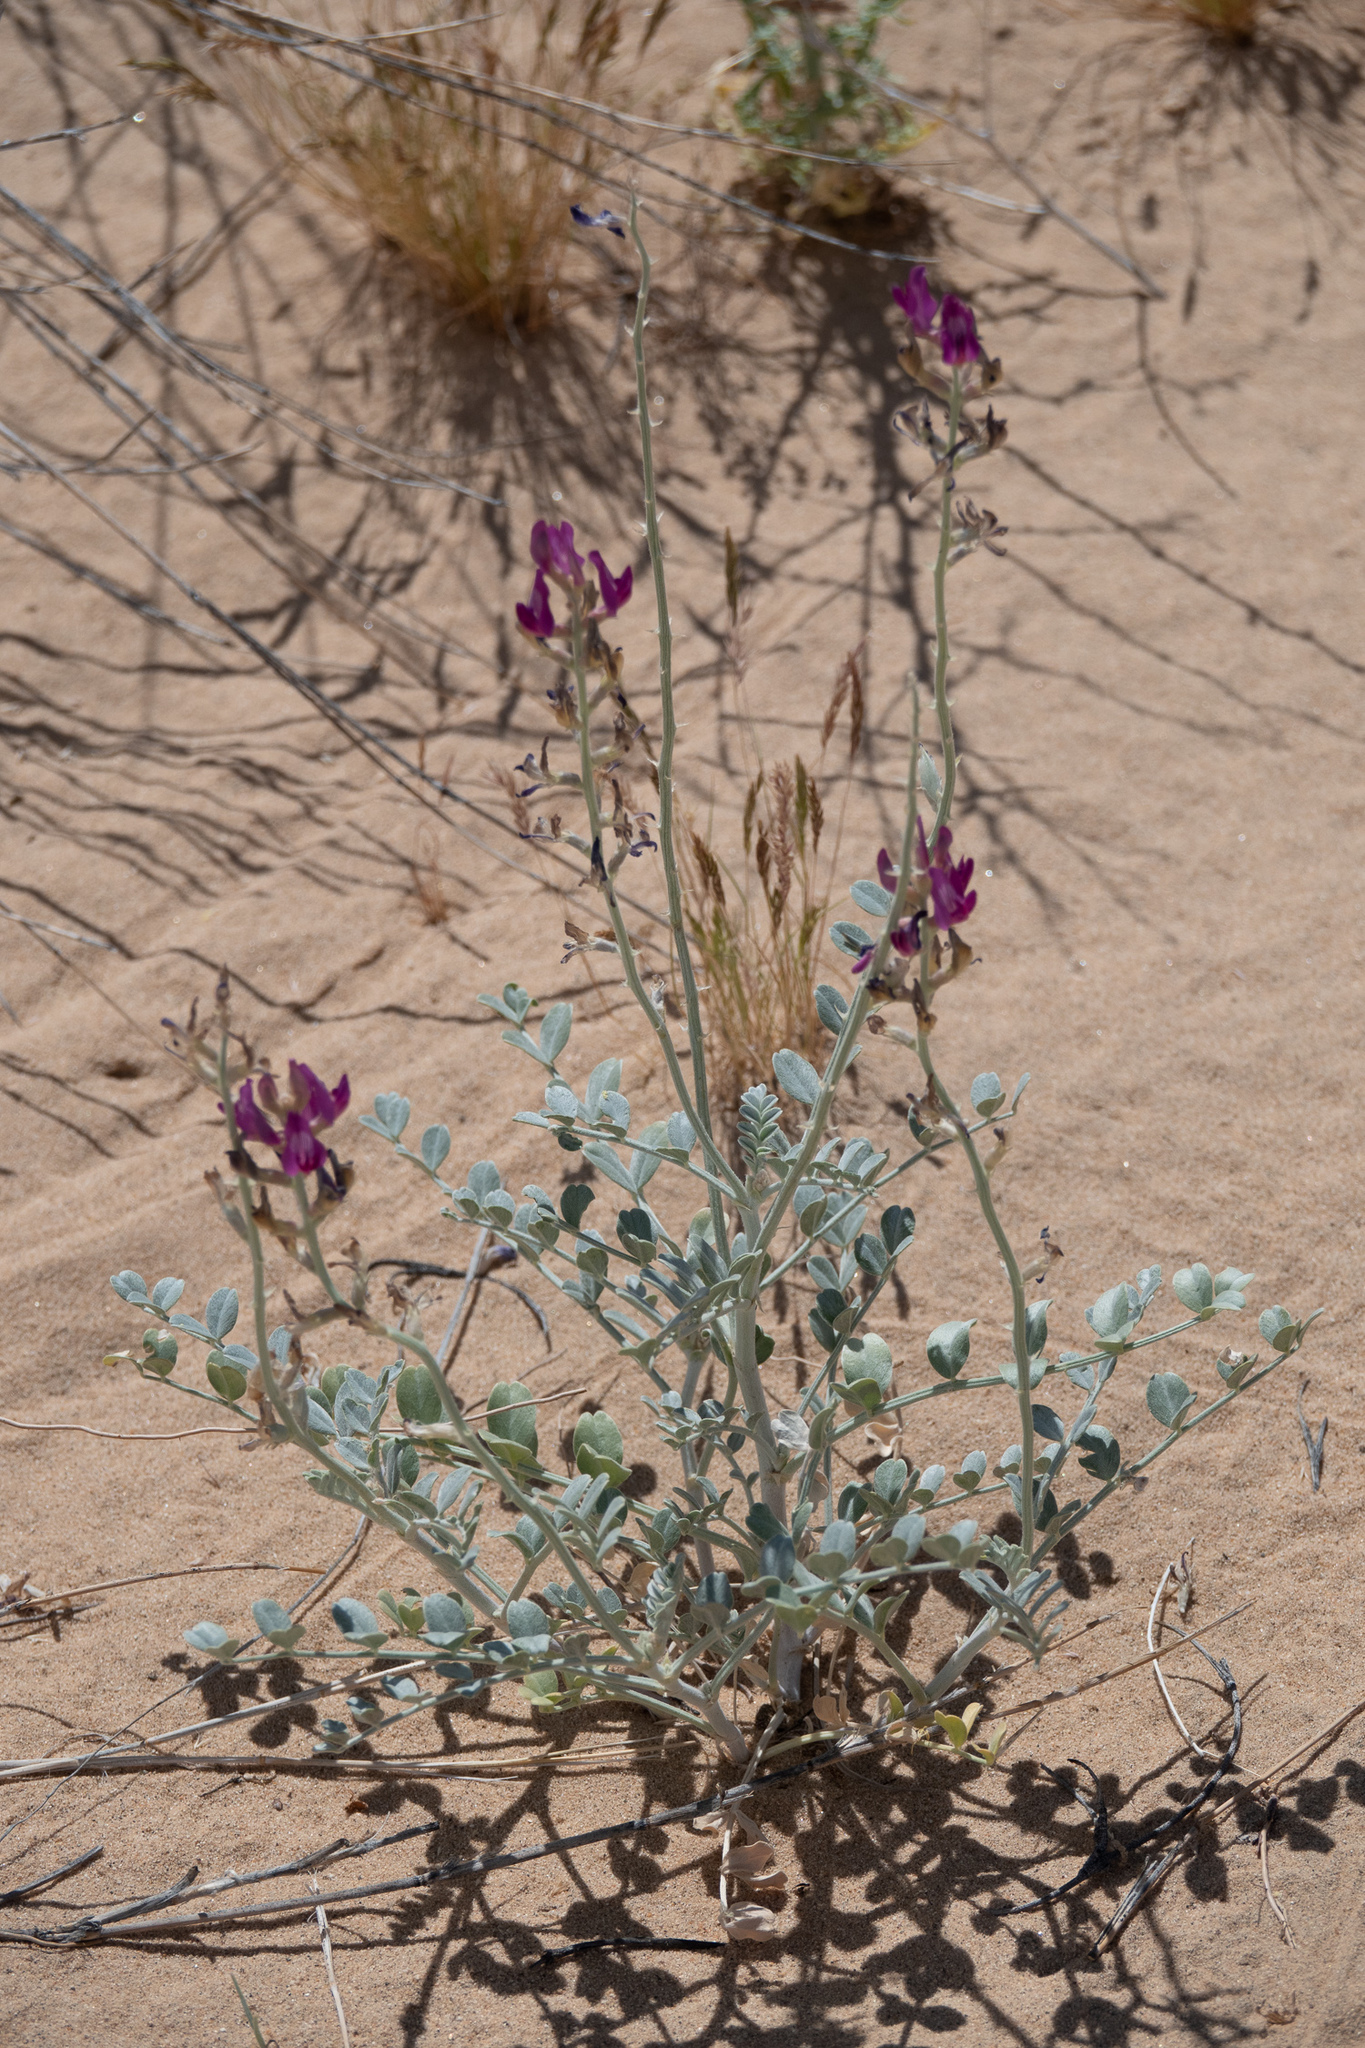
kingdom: Plantae
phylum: Tracheophyta
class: Magnoliopsida
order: Fabales
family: Fabaceae
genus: Astragalus
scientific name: Astragalus lentiginosus
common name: Freckled milkvetch
